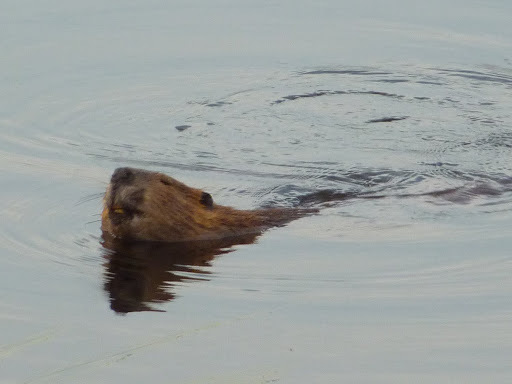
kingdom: Animalia
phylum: Chordata
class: Mammalia
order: Rodentia
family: Castoridae
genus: Castor
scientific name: Castor canadensis
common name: American beaver
